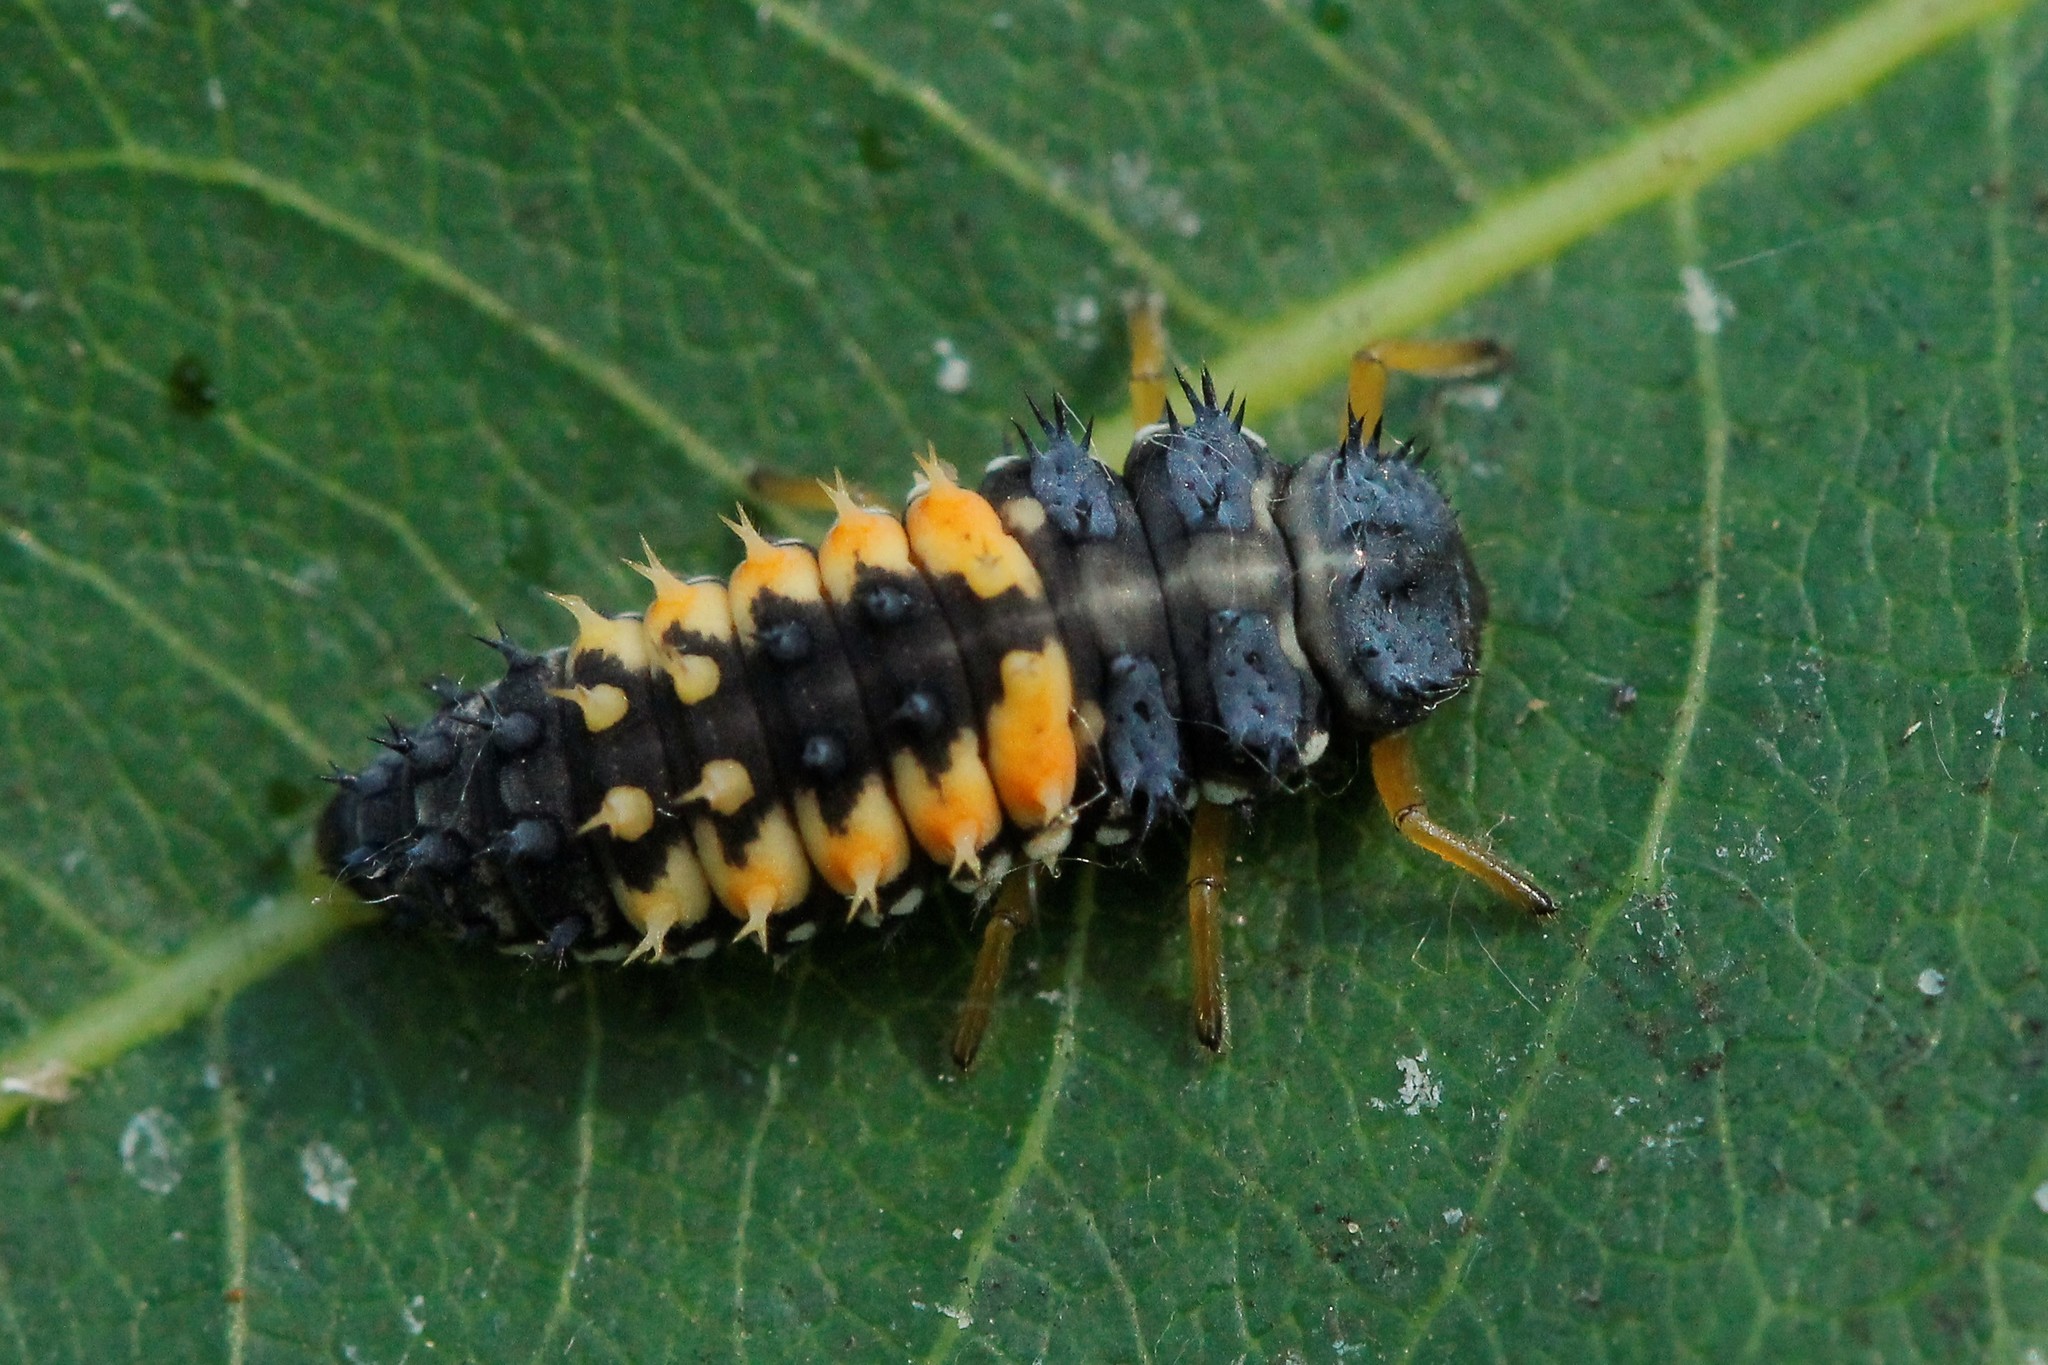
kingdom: Animalia
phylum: Arthropoda
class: Insecta
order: Coleoptera
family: Coccinellidae
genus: Harmonia
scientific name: Harmonia axyridis
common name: Harlequin ladybird
